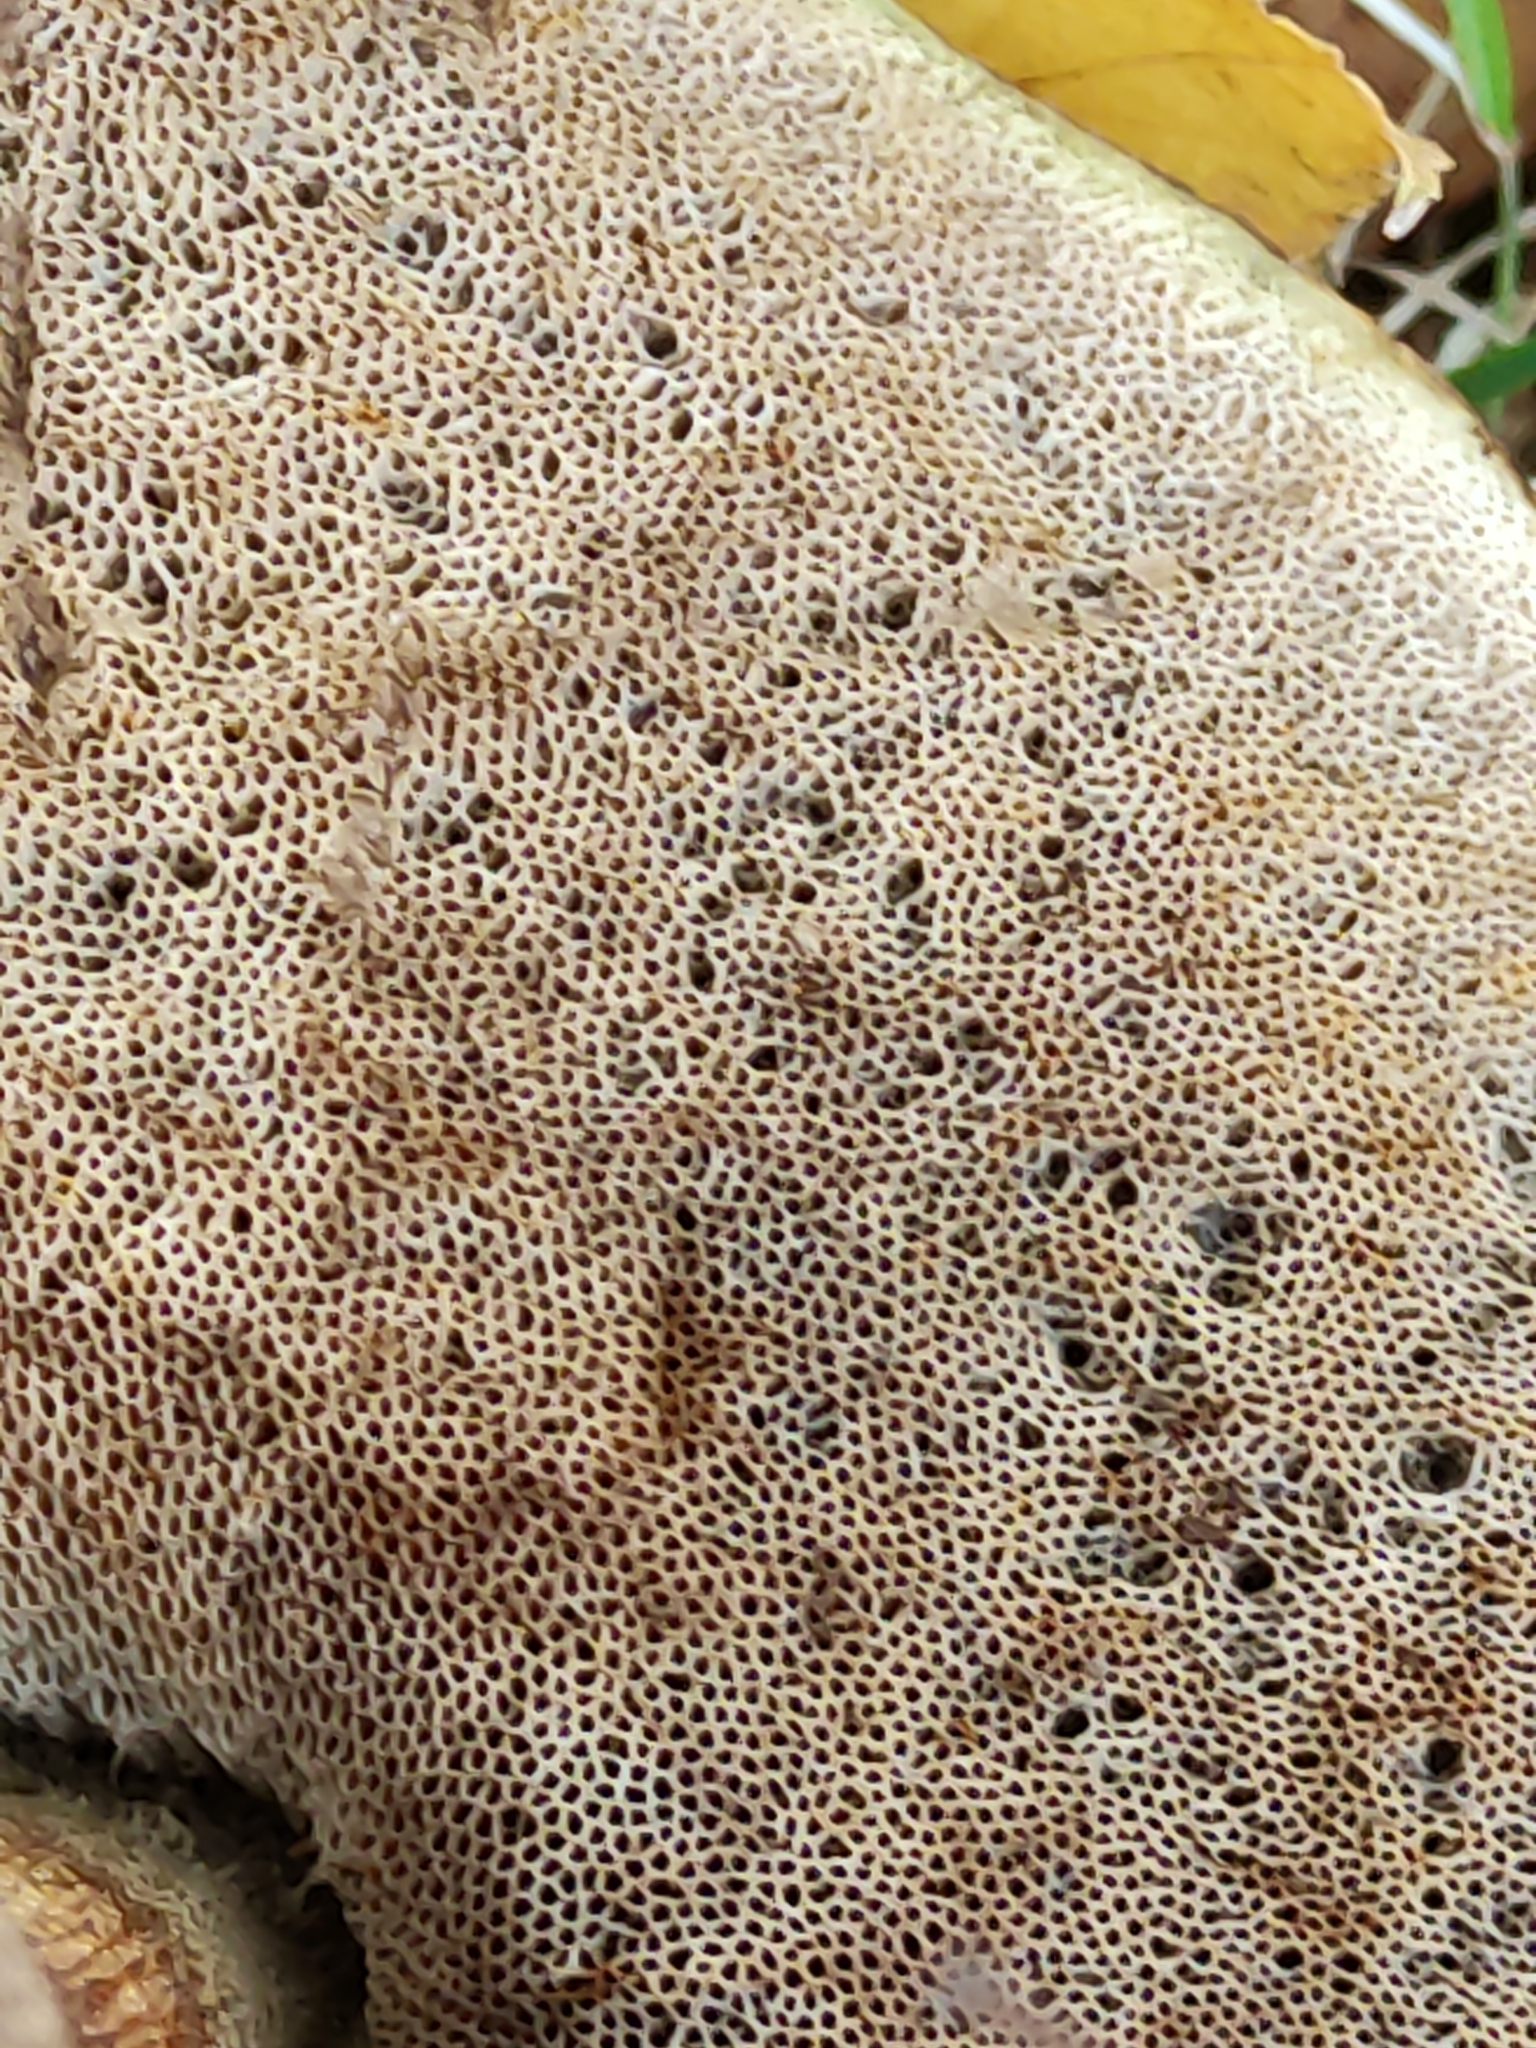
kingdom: Fungi
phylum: Basidiomycota
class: Agaricomycetes
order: Boletales
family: Boletaceae
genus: Leccinum
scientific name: Leccinum scabrum
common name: Blushing bolete
